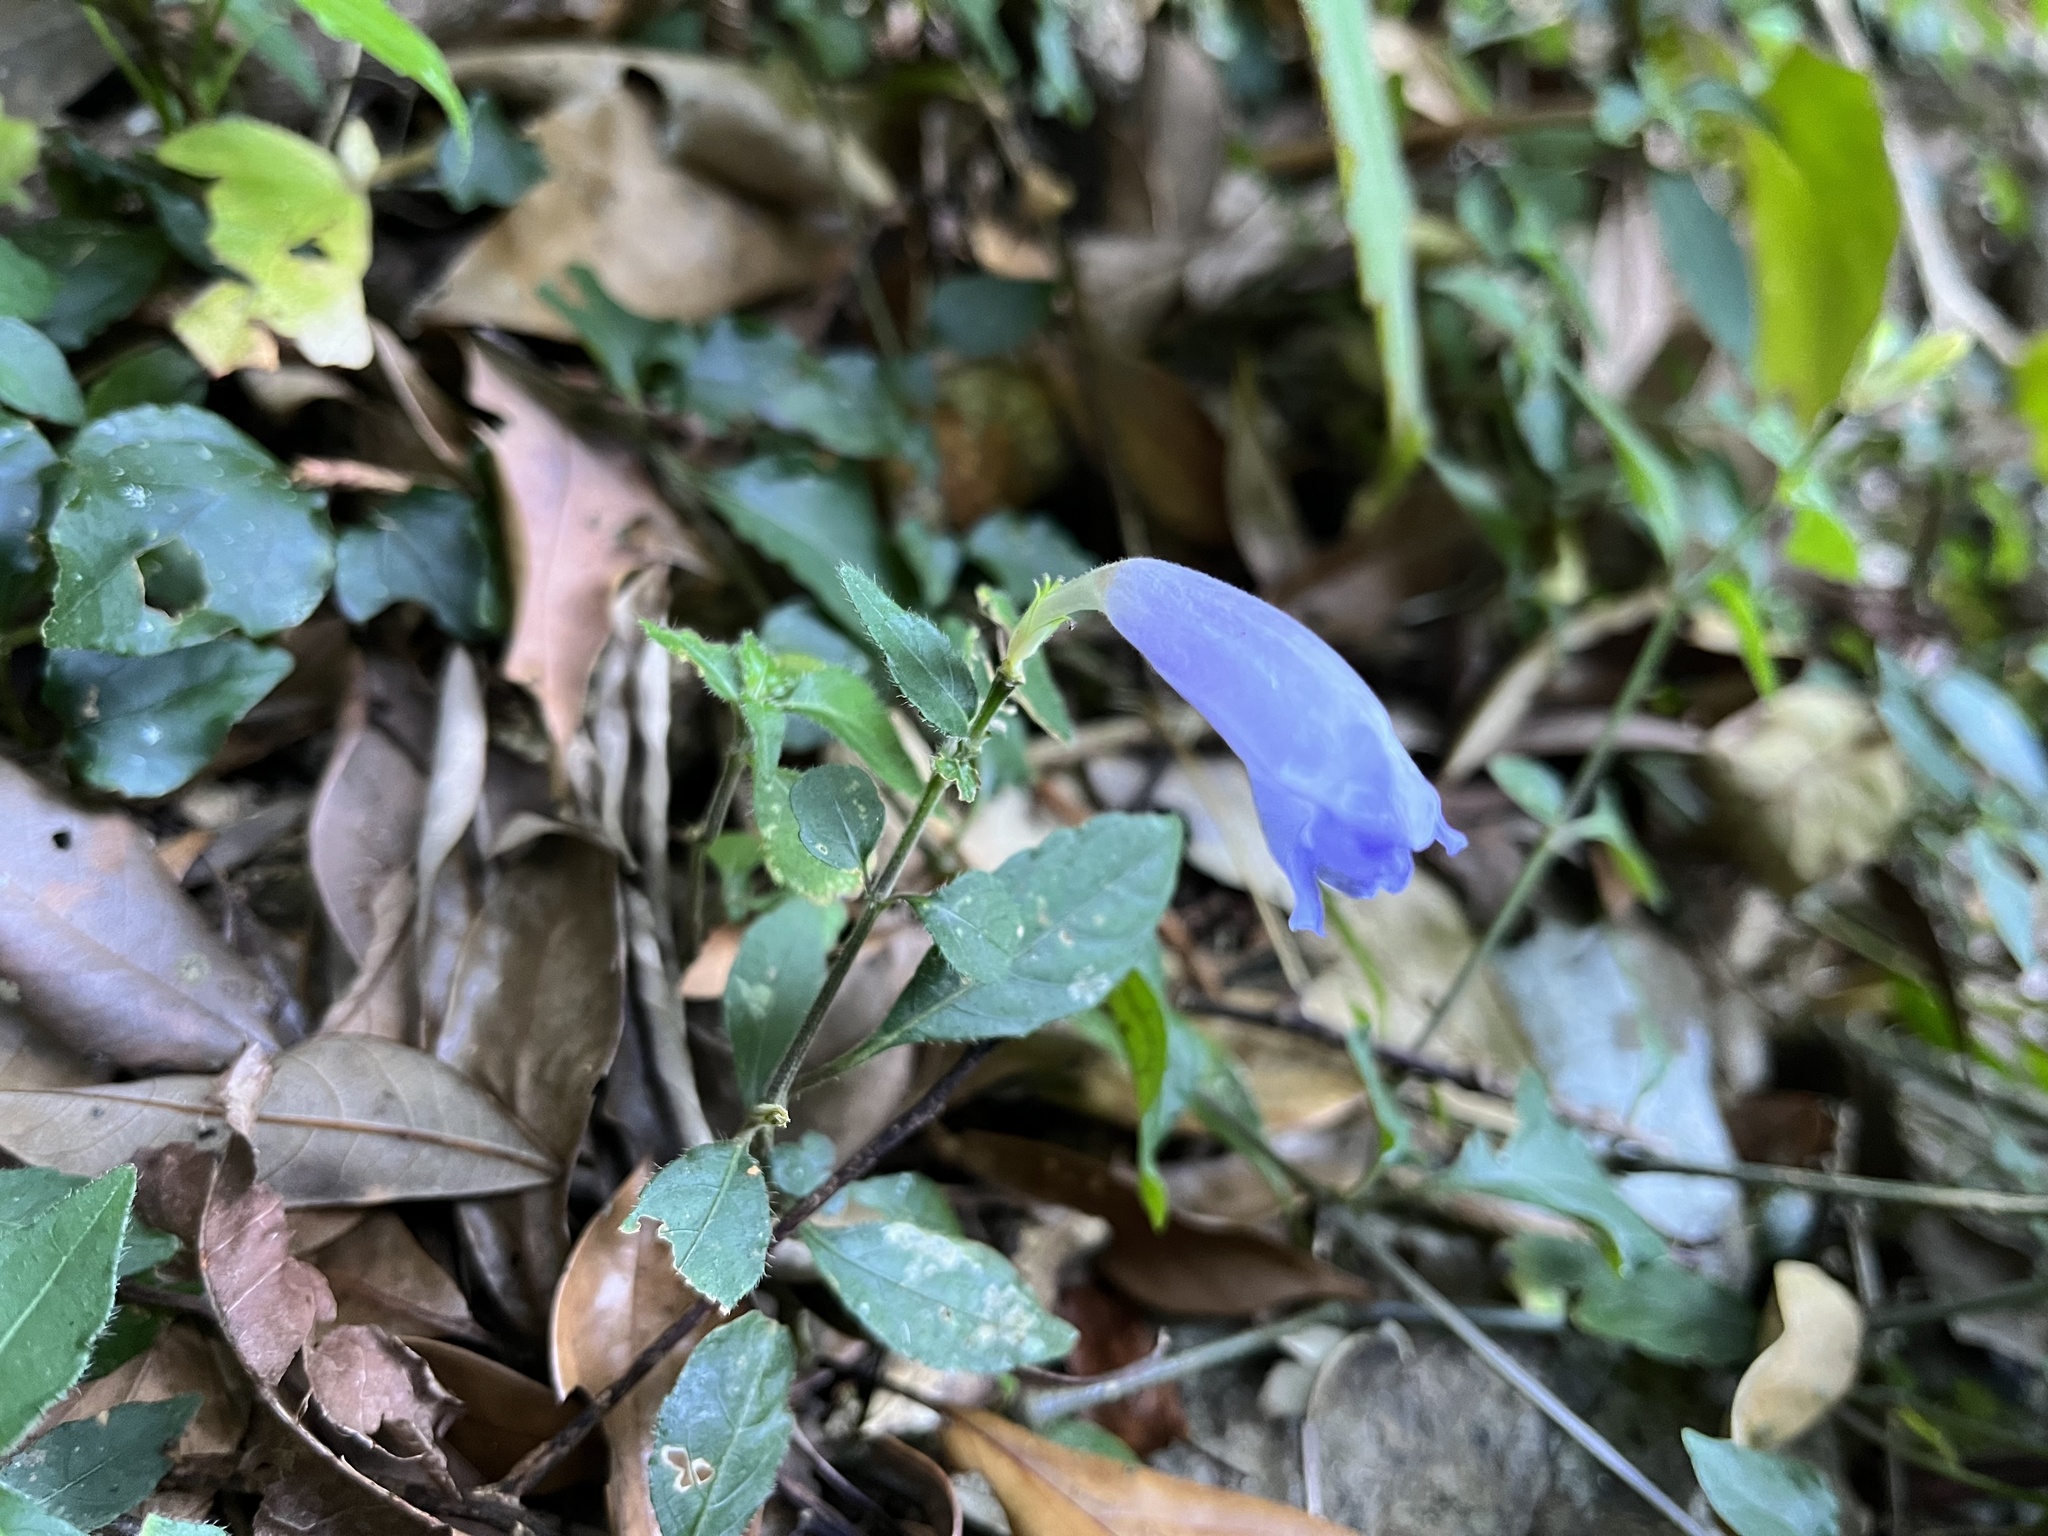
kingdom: Plantae
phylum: Tracheophyta
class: Magnoliopsida
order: Lamiales
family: Acanthaceae
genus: Strobilanthes
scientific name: Strobilanthes formosana
